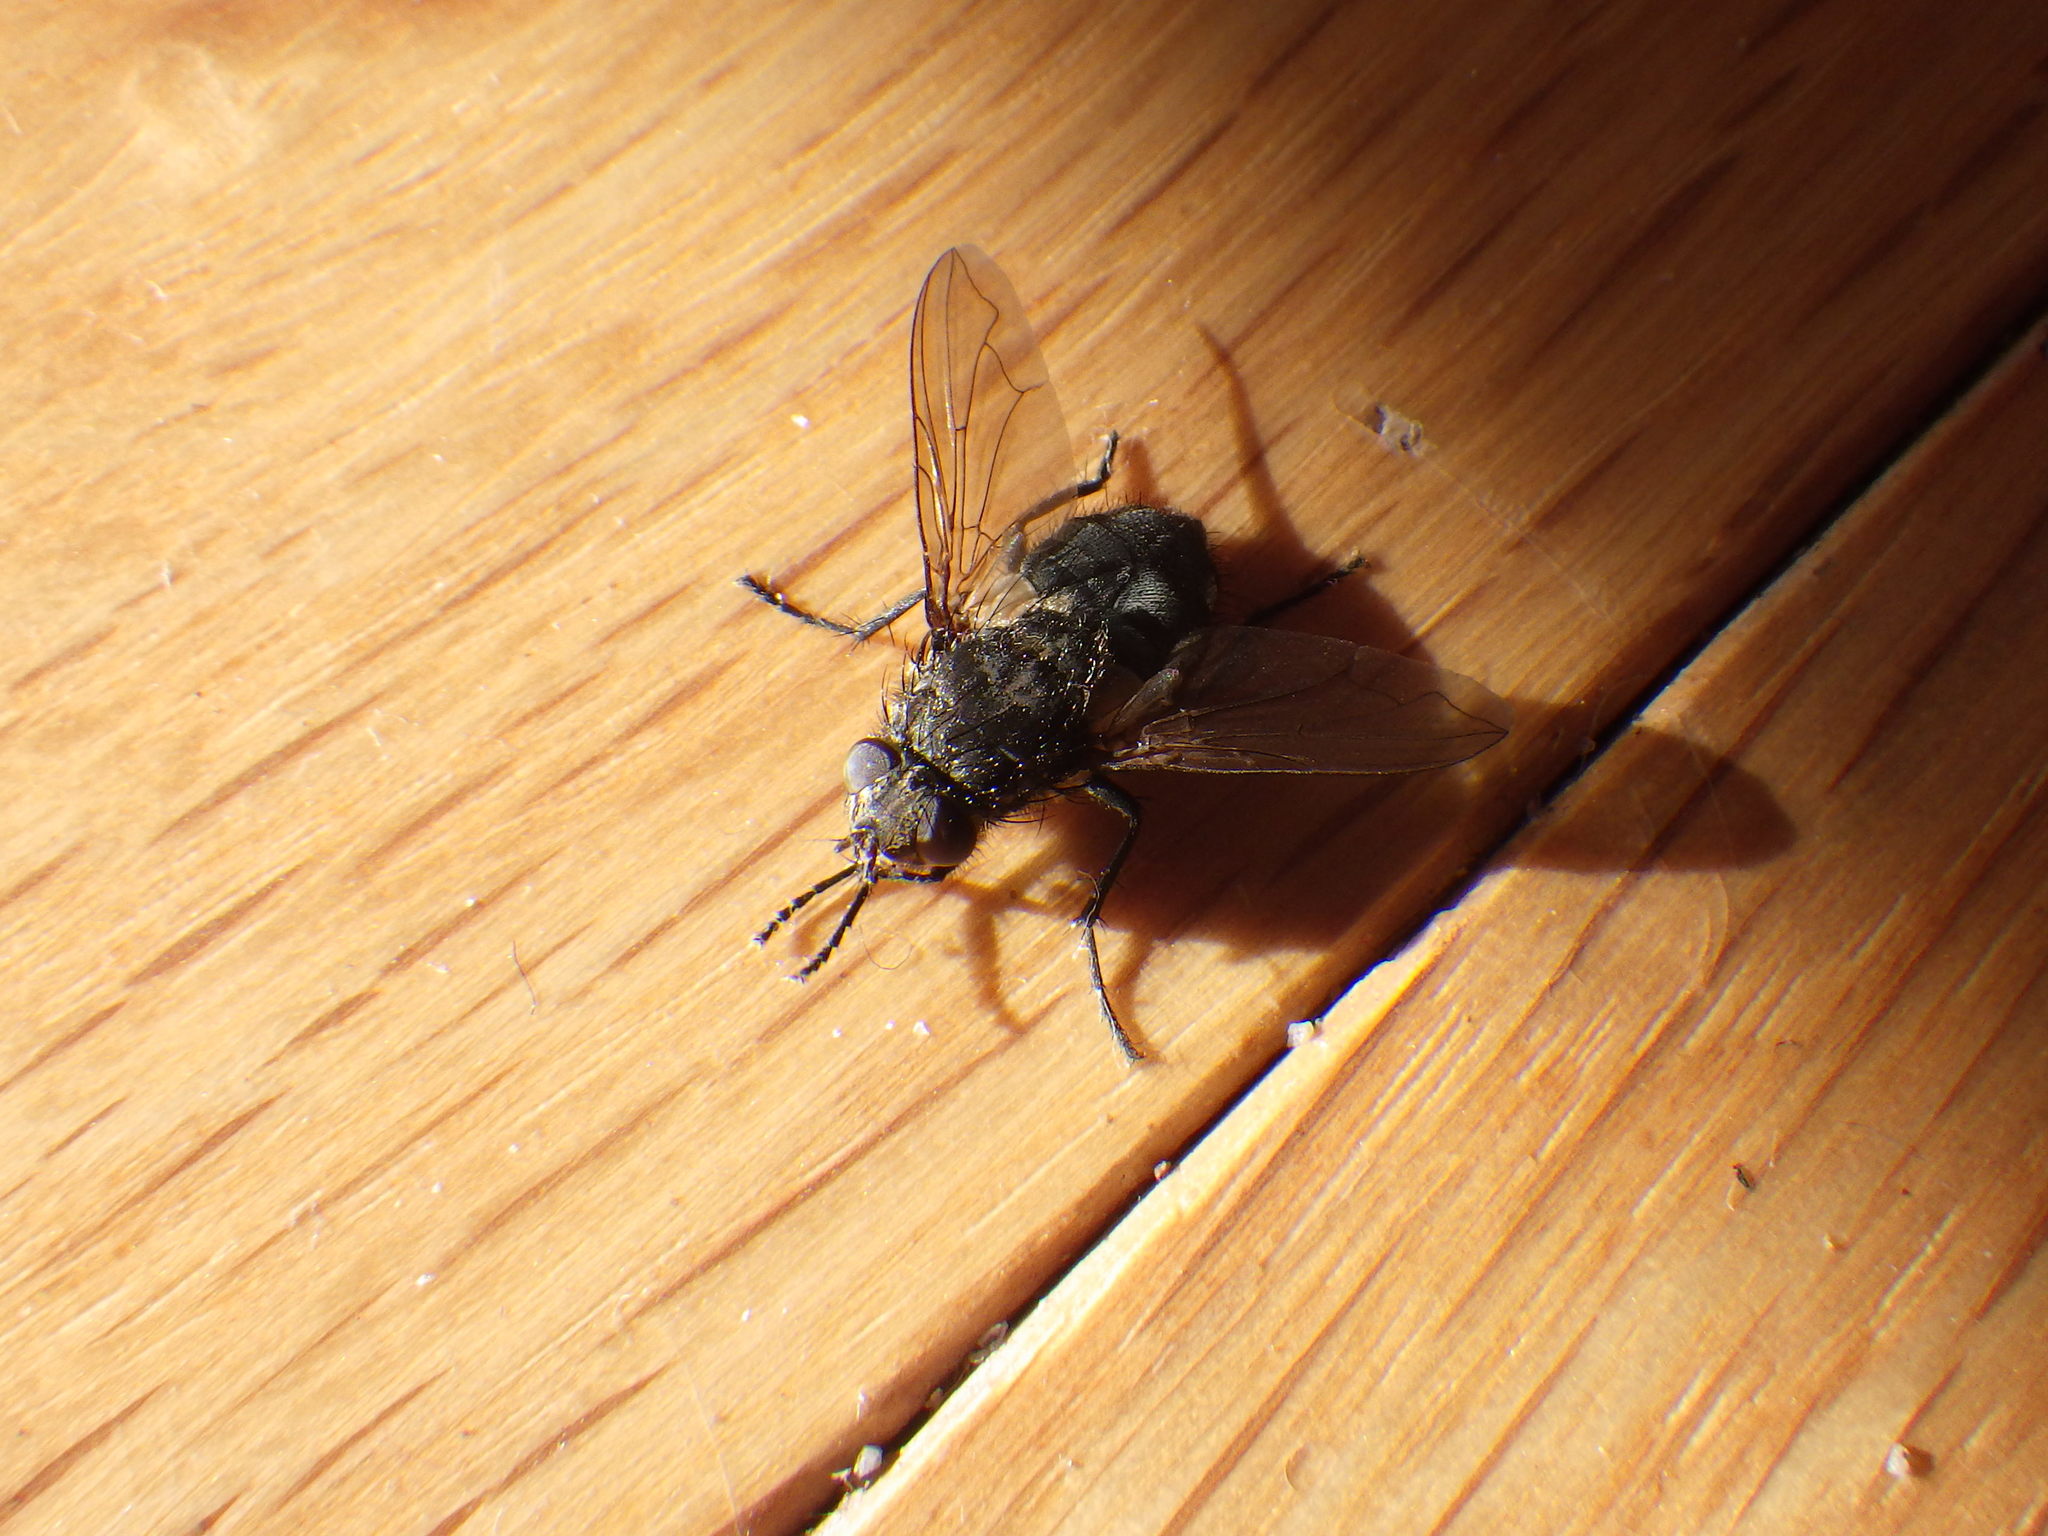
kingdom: Animalia
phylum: Arthropoda
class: Insecta
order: Diptera
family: Polleniidae
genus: Pollenia
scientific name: Pollenia vagabunda
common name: Vagabund cluster fly
